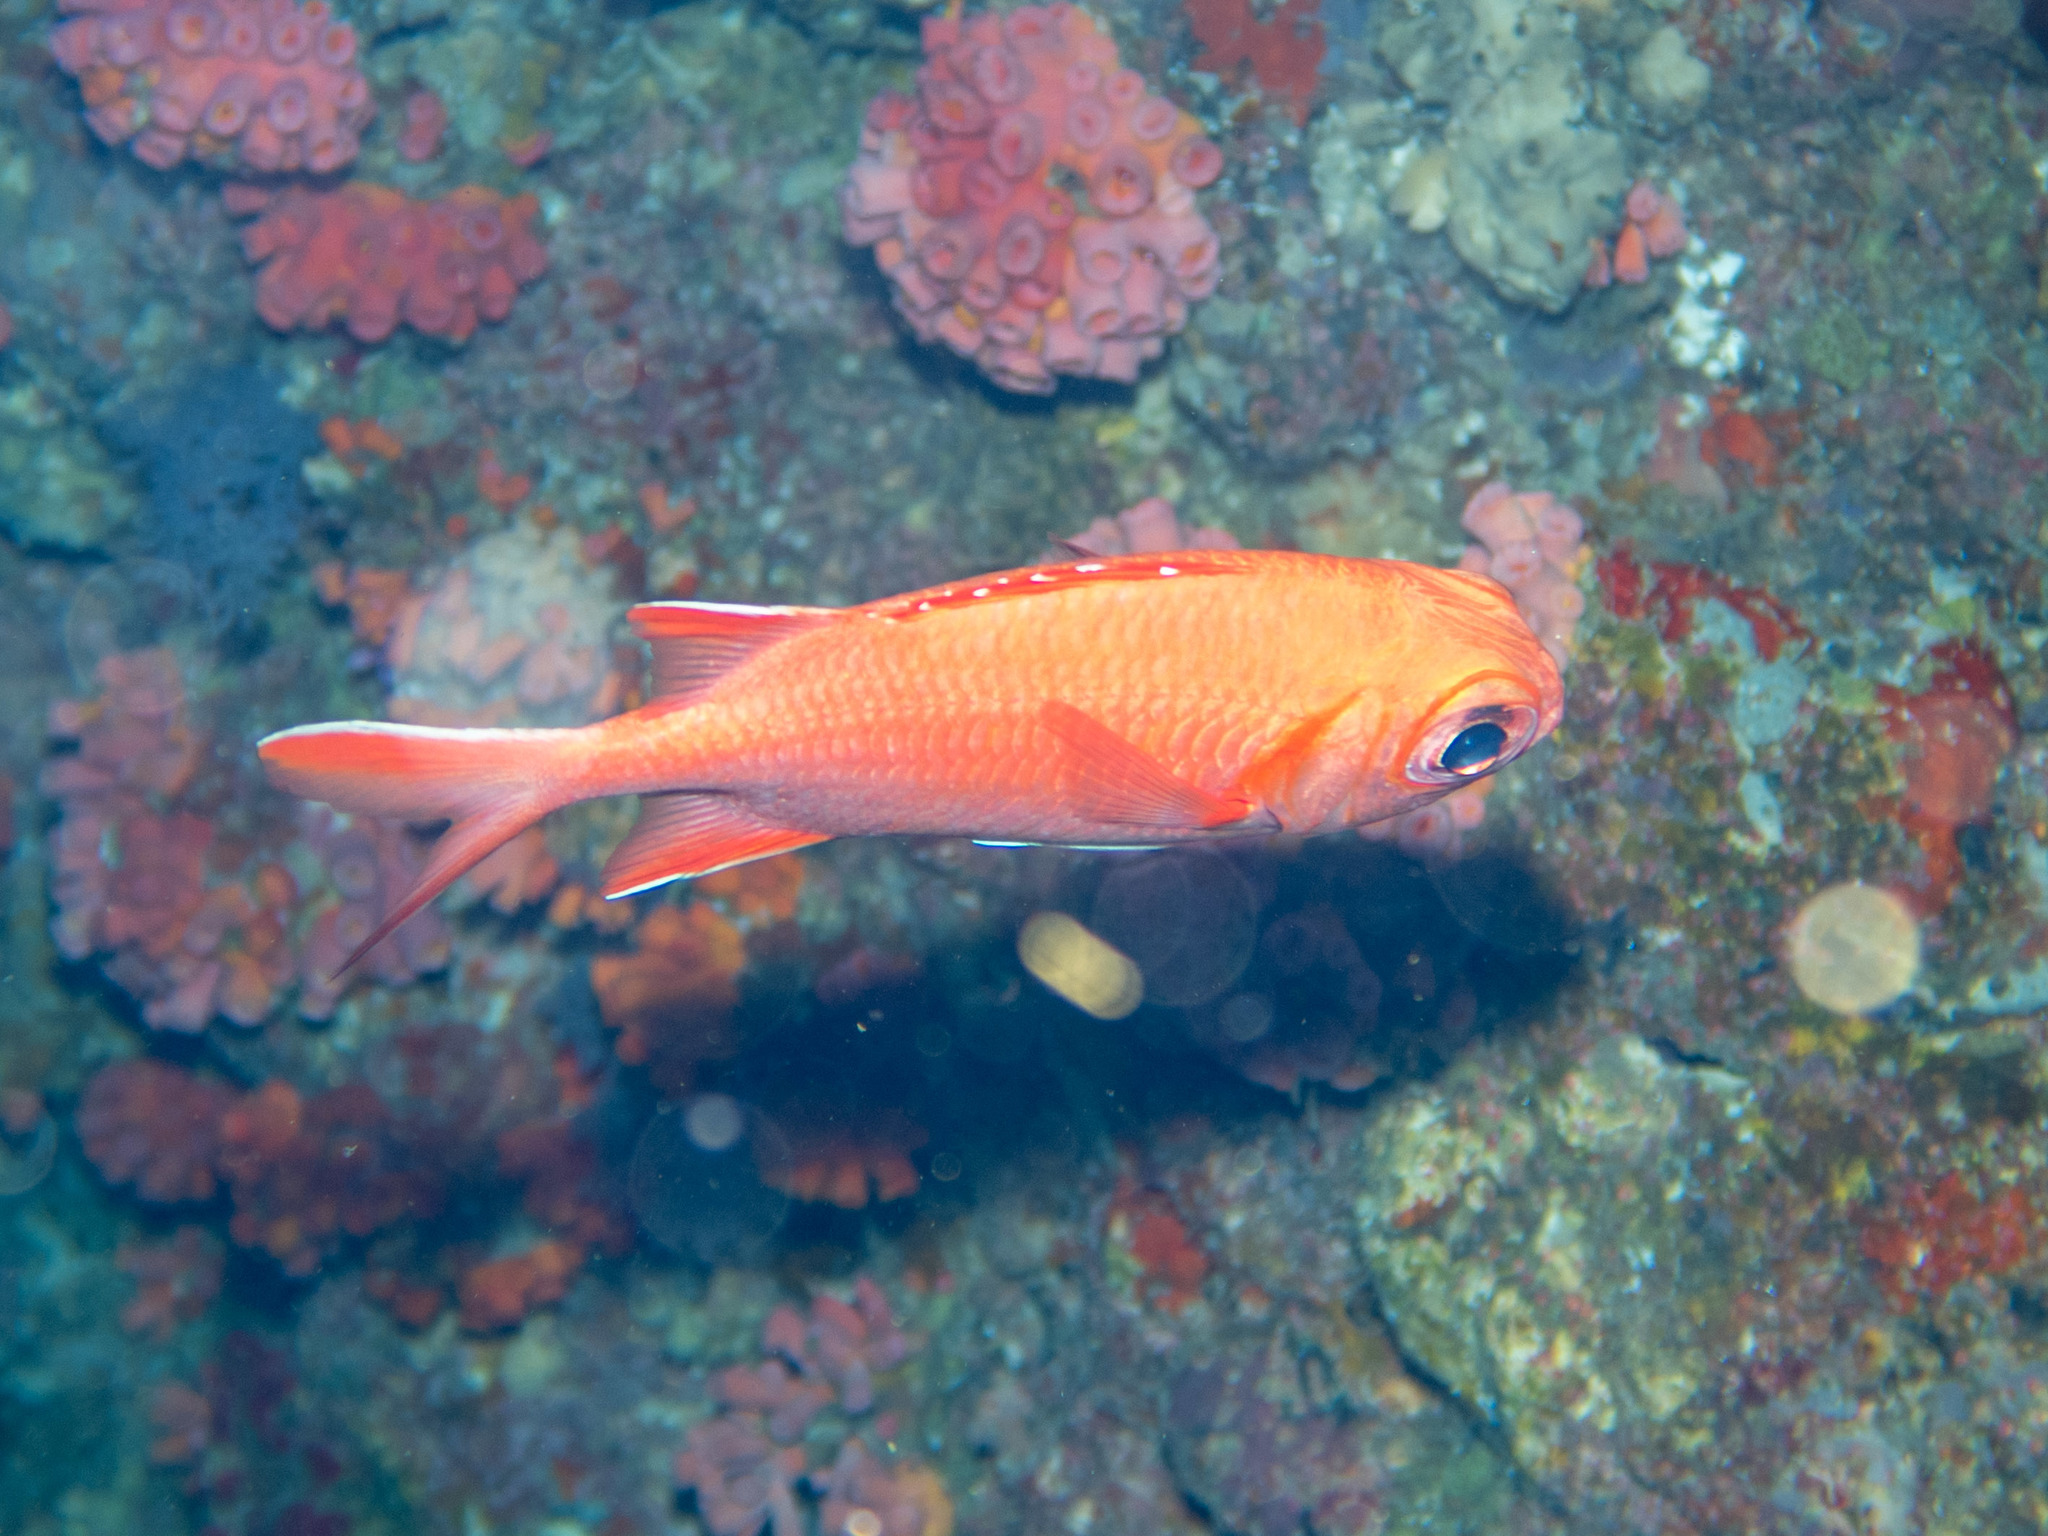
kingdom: Animalia
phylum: Chordata
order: Beryciformes
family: Holocentridae
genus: Myripristis
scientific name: Myripristis vittata
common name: Immaculate squirrelfish
